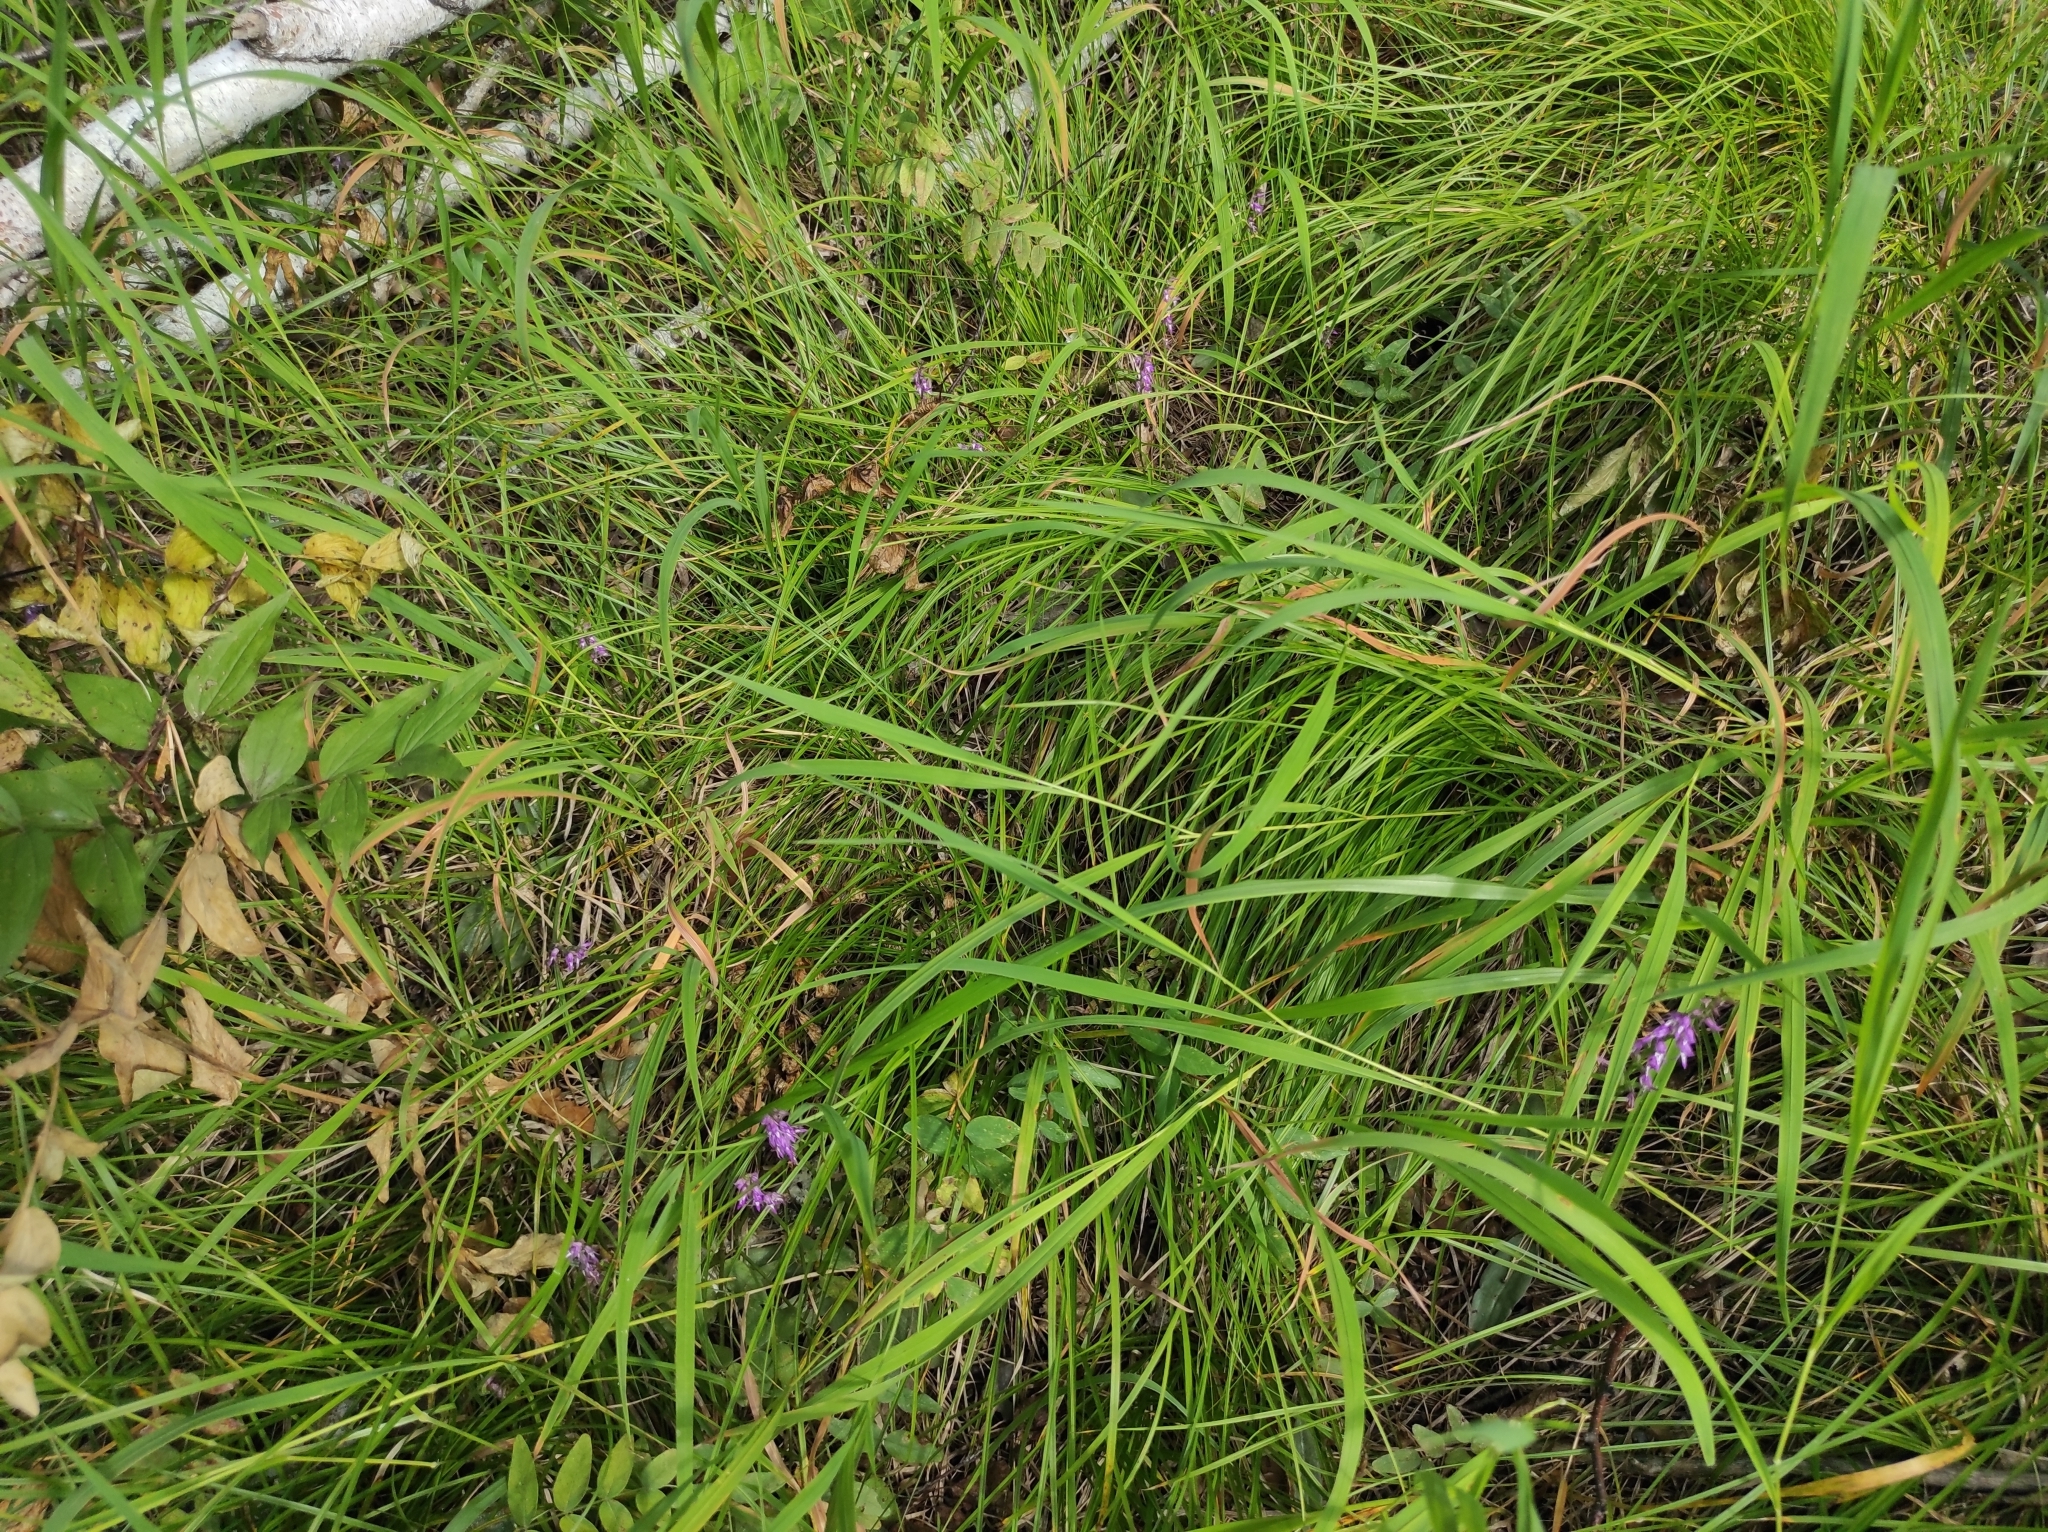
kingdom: Plantae
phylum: Tracheophyta
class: Liliopsida
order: Asparagales
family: Orchidaceae
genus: Hemipilia
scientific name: Hemipilia cucullata
